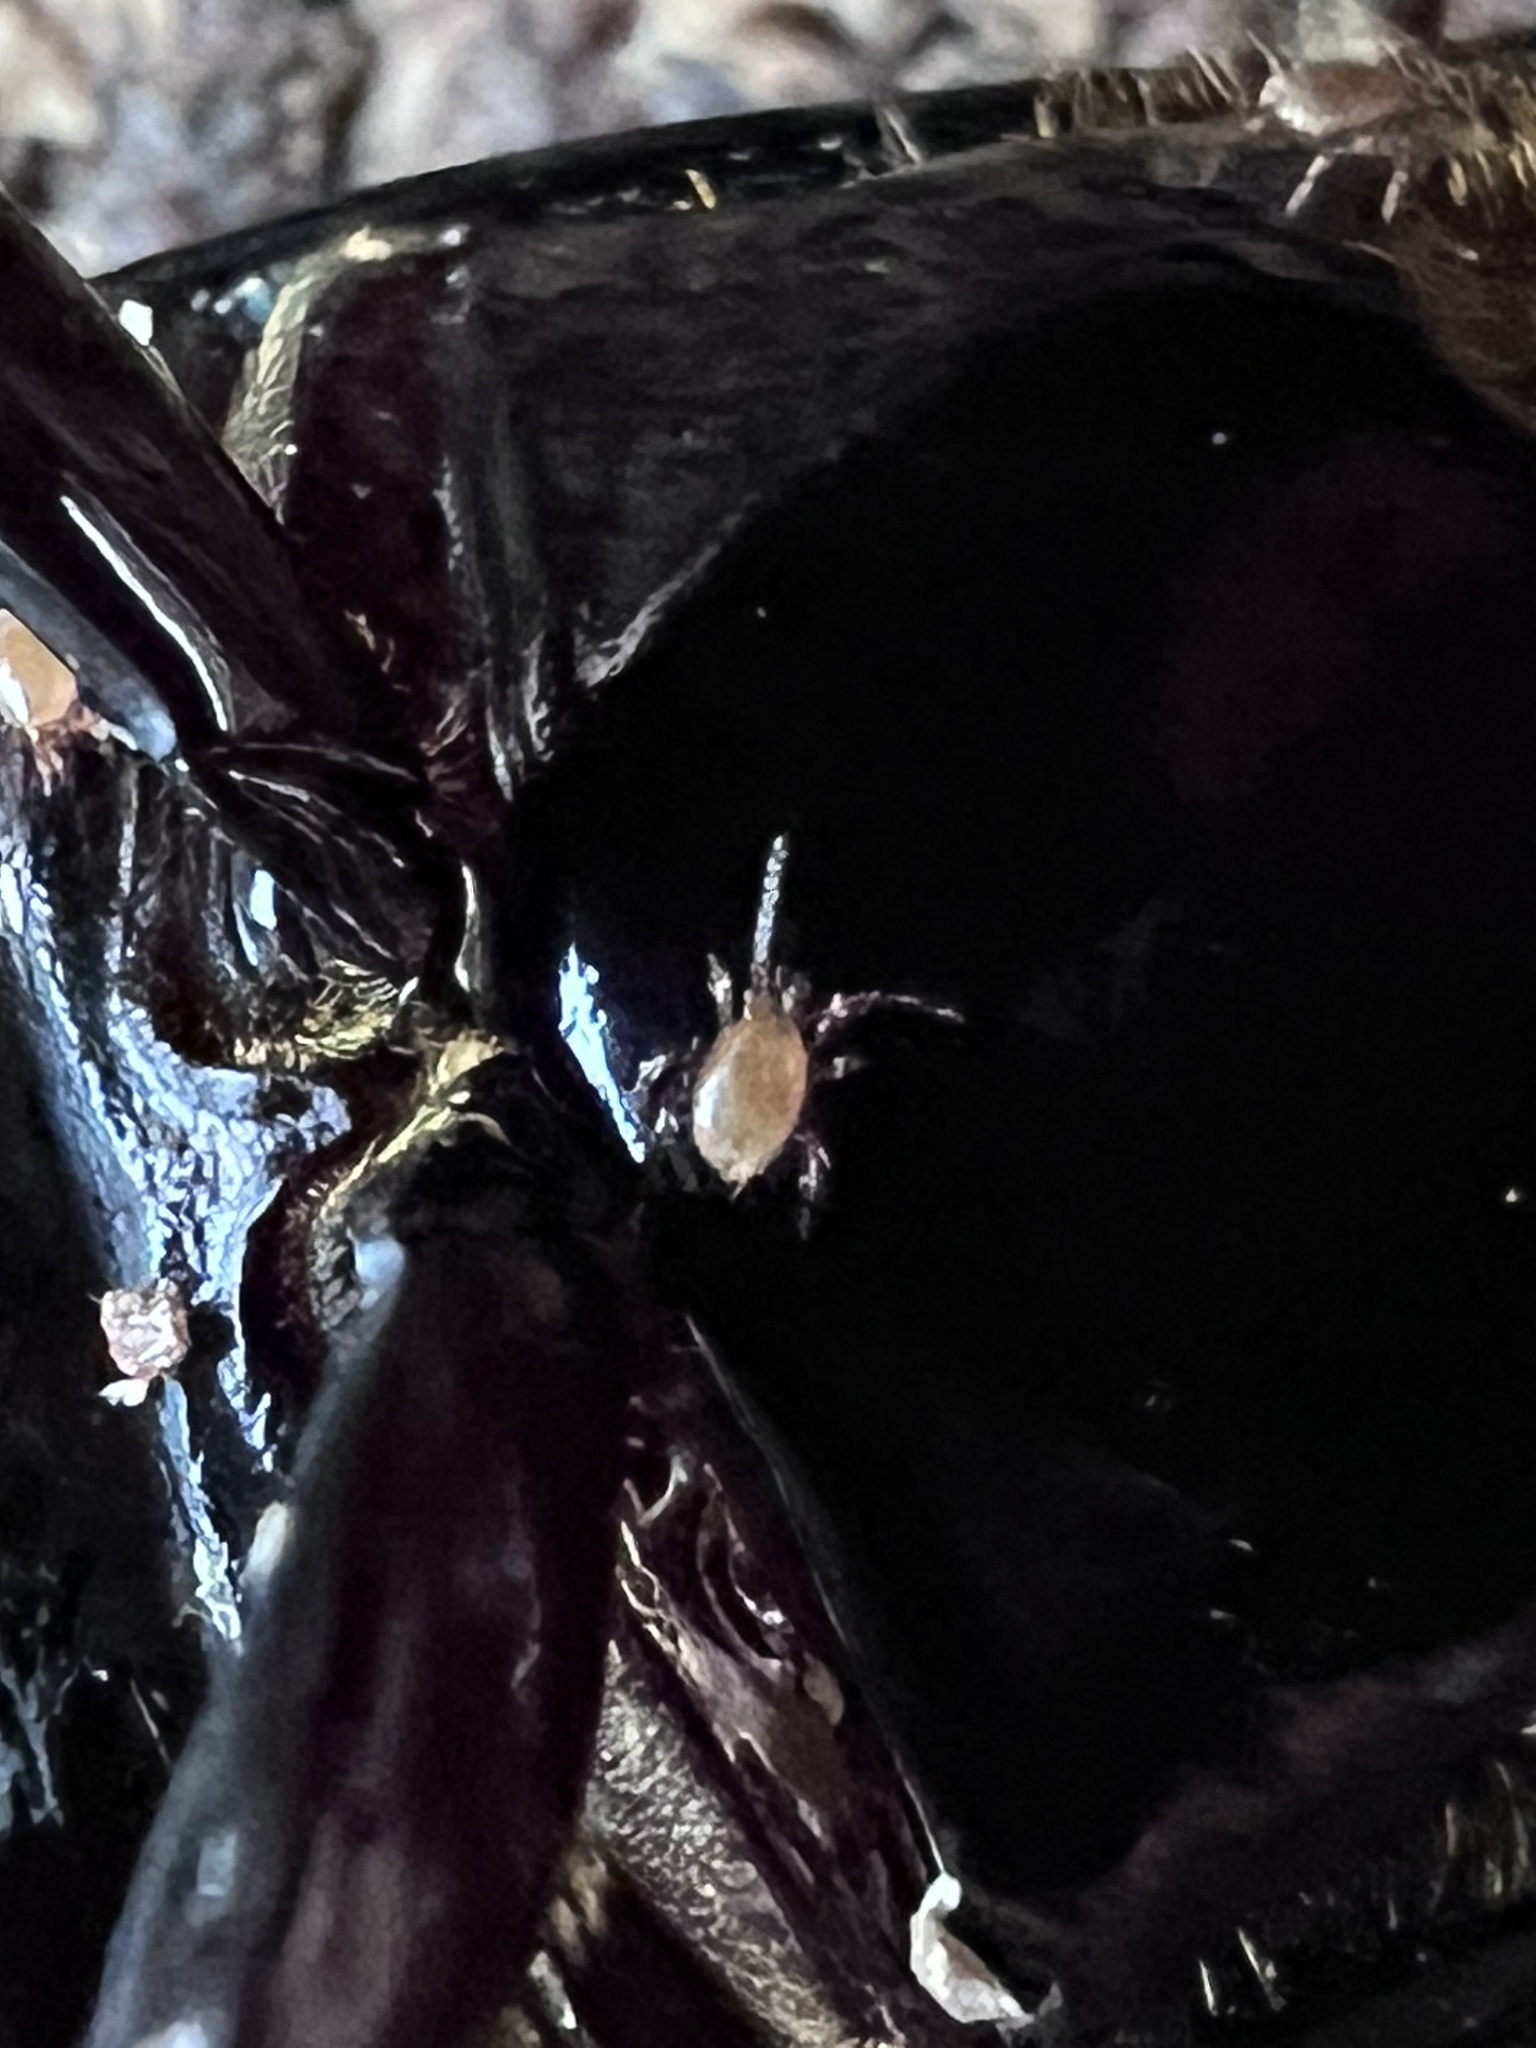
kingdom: Animalia
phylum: Arthropoda
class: Arachnida
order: Mesostigmata
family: Euzerconidae
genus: Euzercon
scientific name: Euzercon
